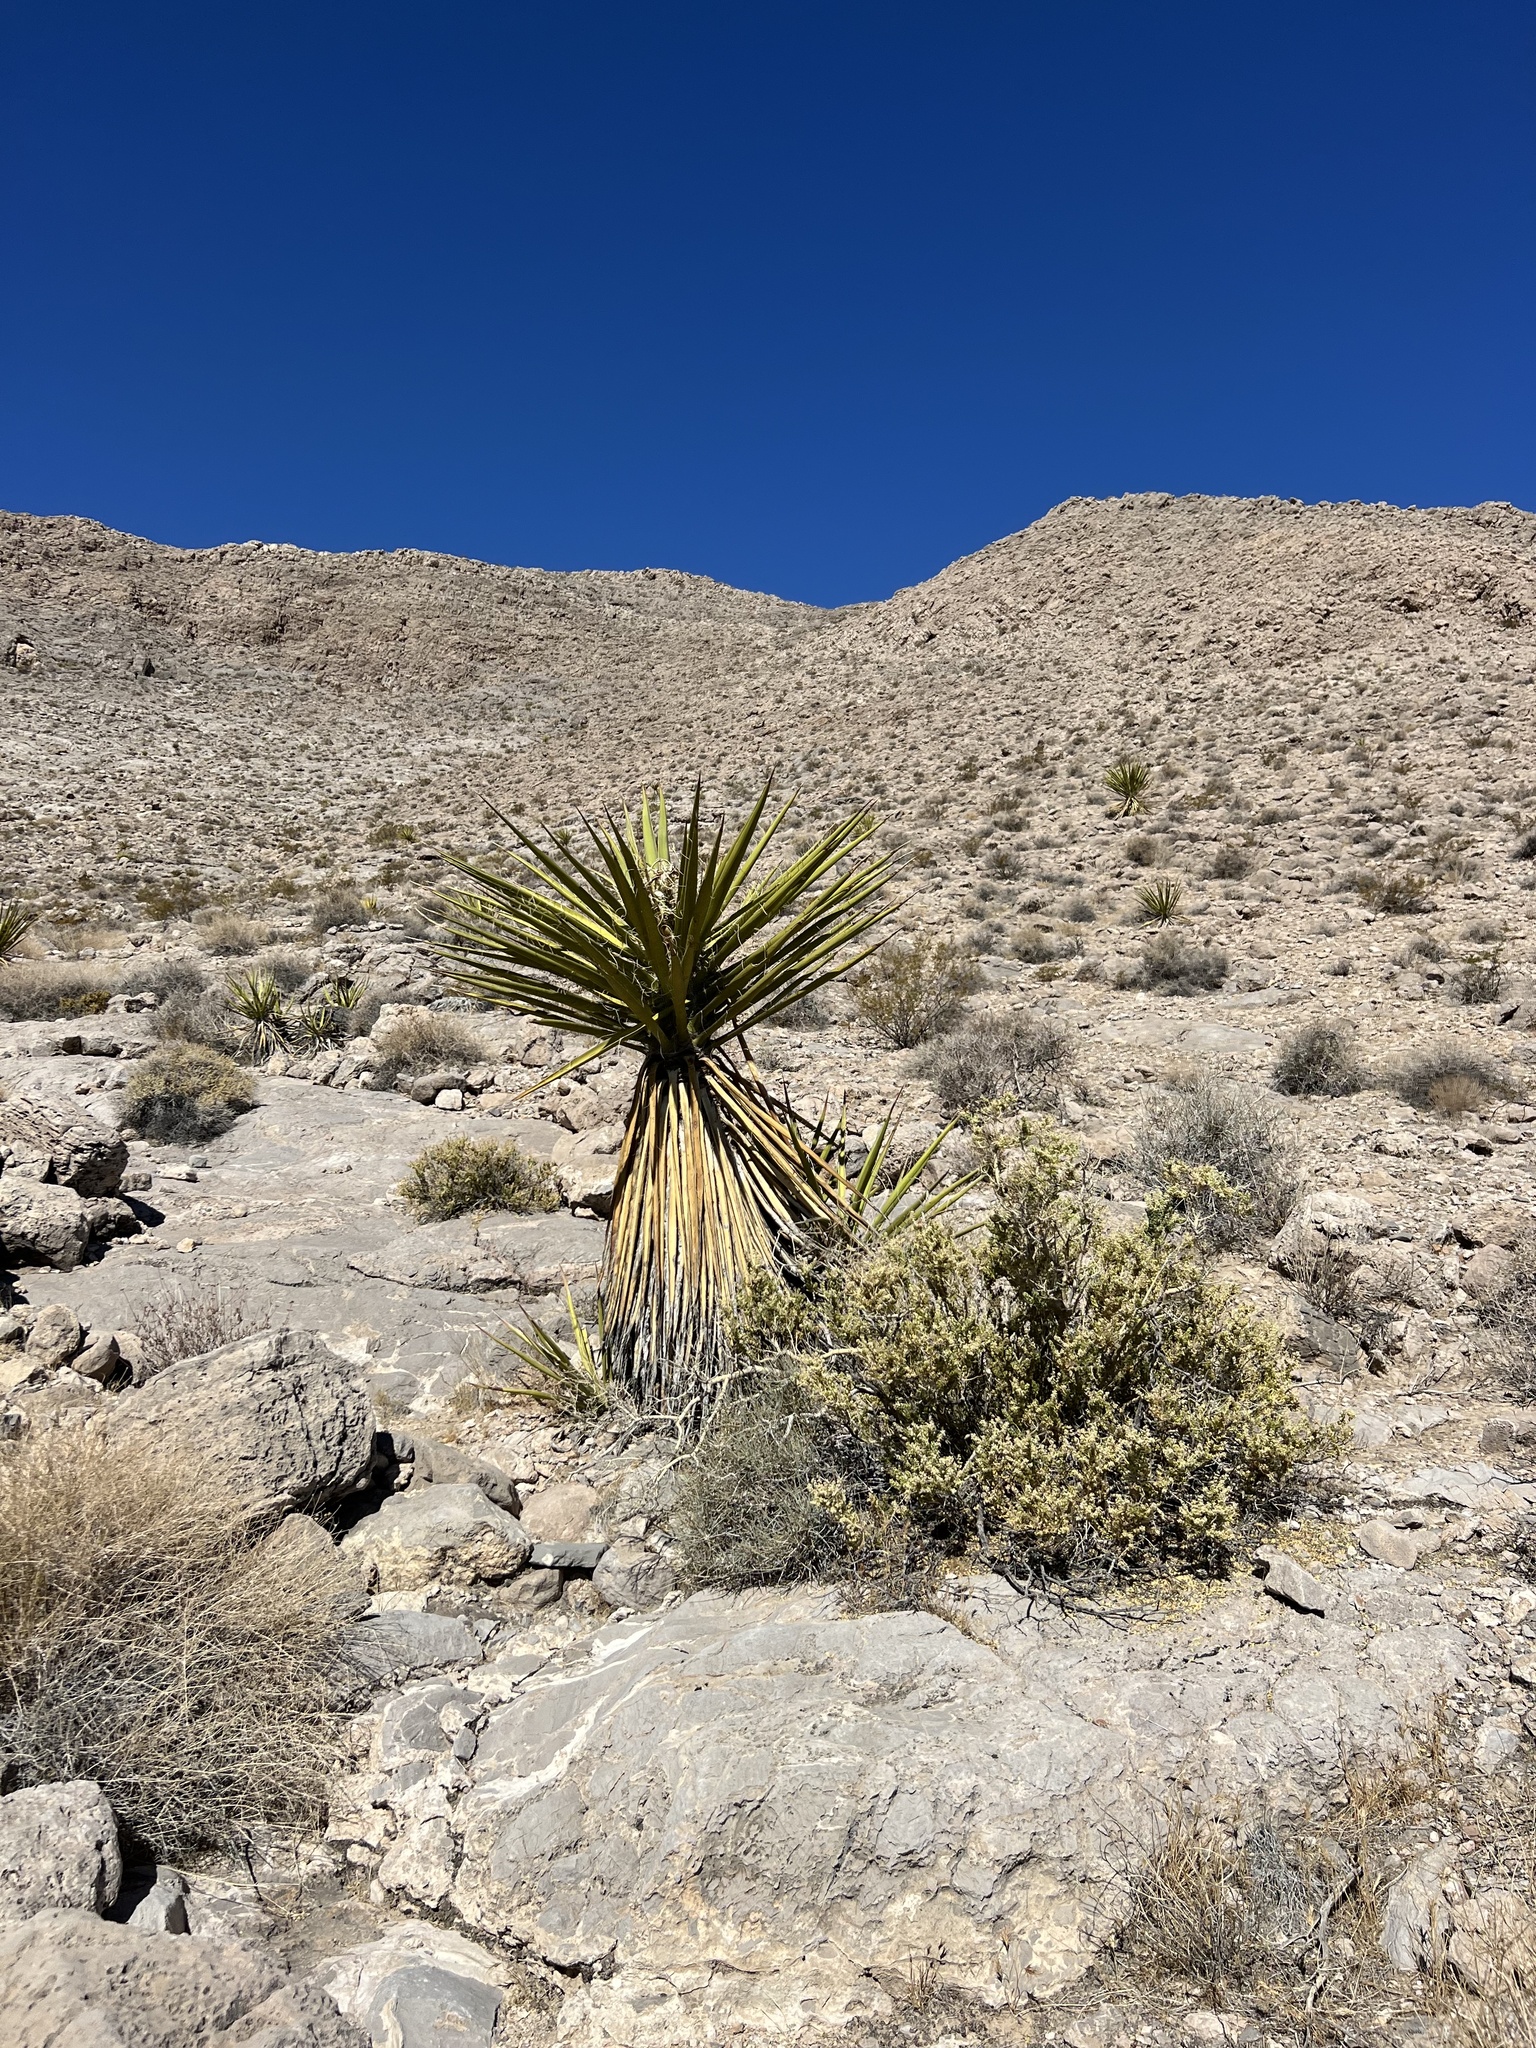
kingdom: Plantae
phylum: Tracheophyta
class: Liliopsida
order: Asparagales
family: Asparagaceae
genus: Yucca
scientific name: Yucca schidigera
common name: Mojave yucca
